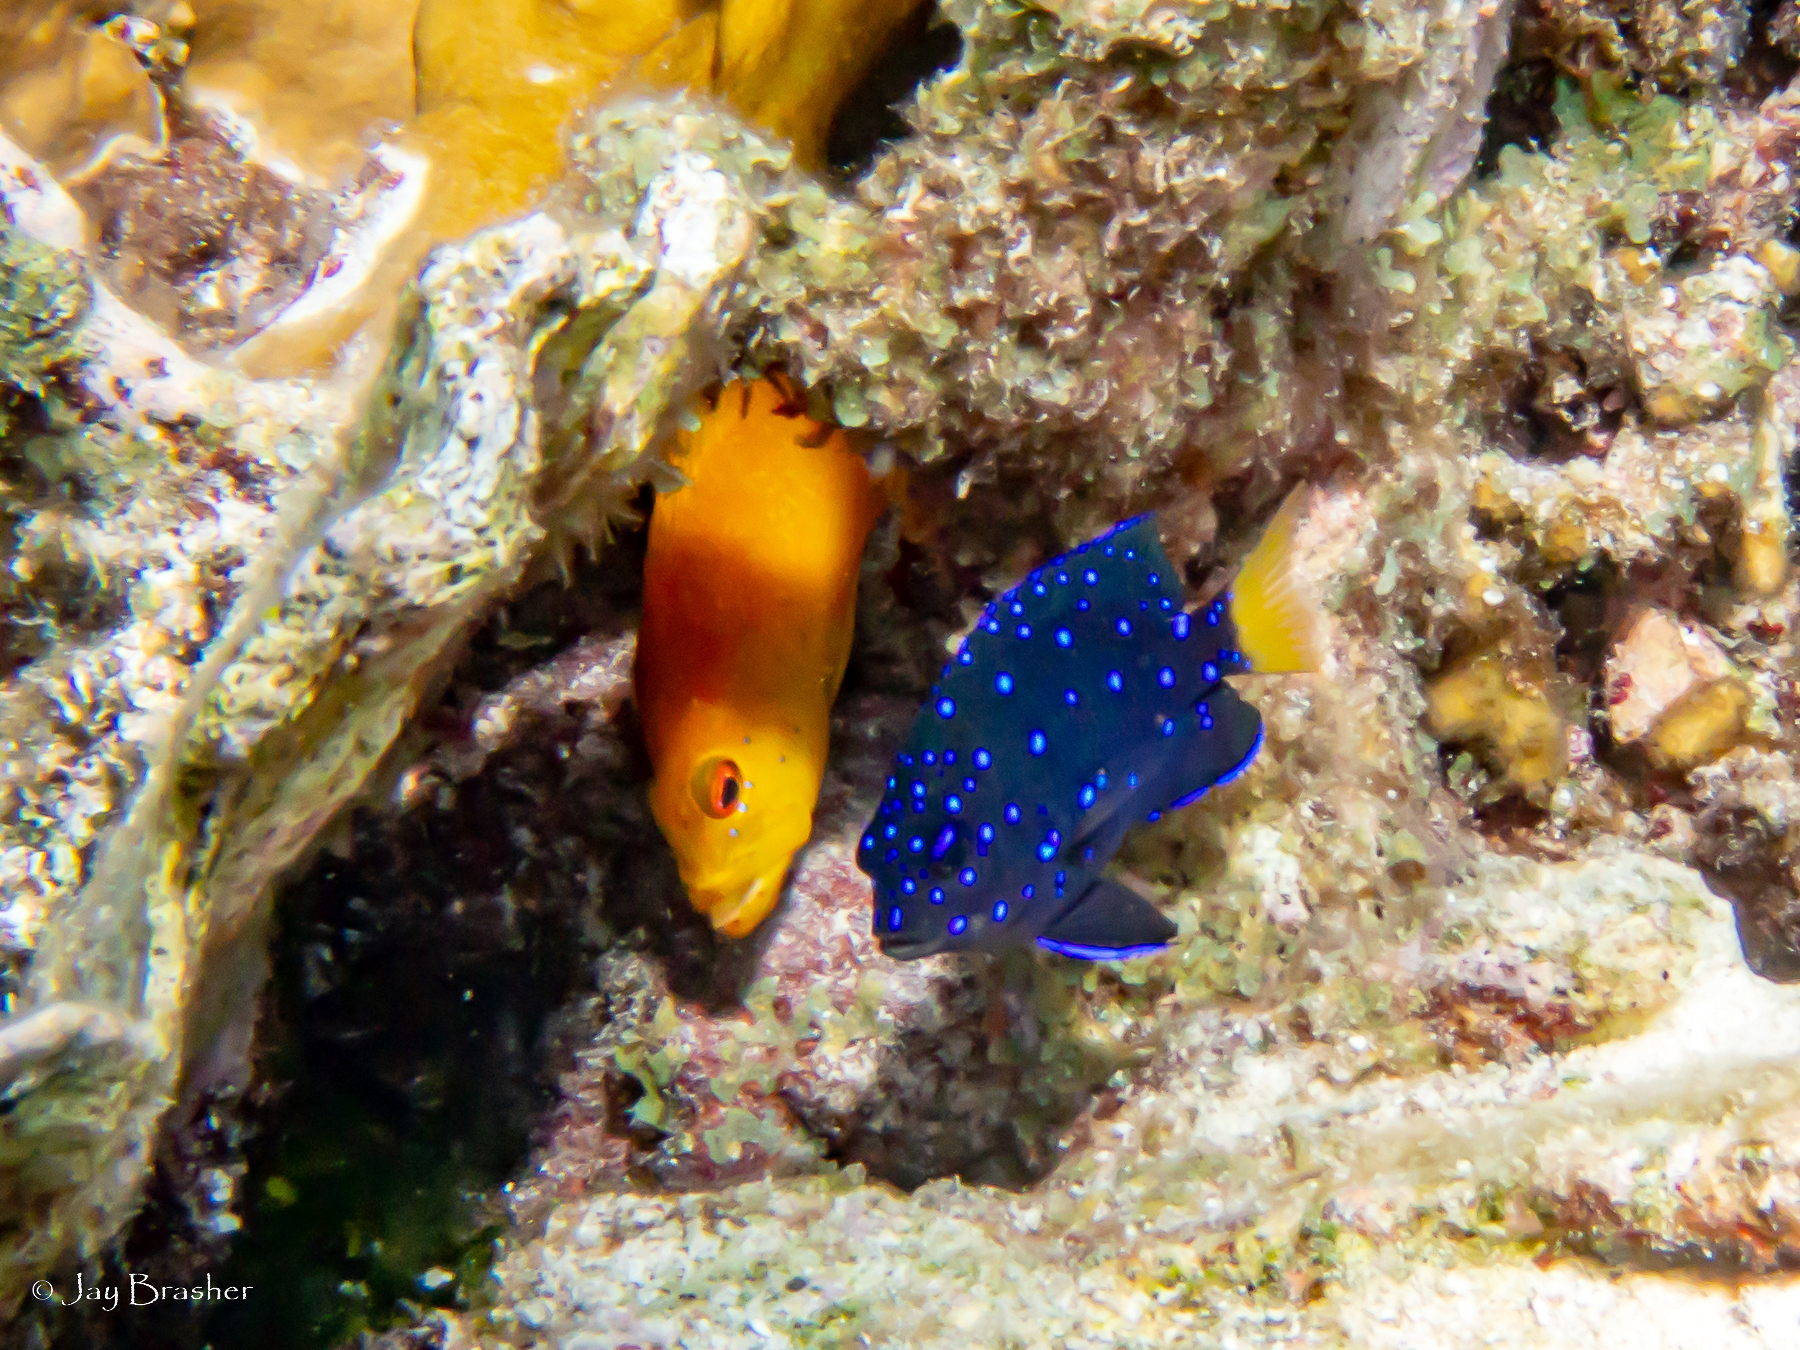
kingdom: Animalia
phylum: Chordata
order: Perciformes
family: Pomacentridae
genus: Microspathodon
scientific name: Microspathodon chrysurus
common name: Yellowtail damselfish
